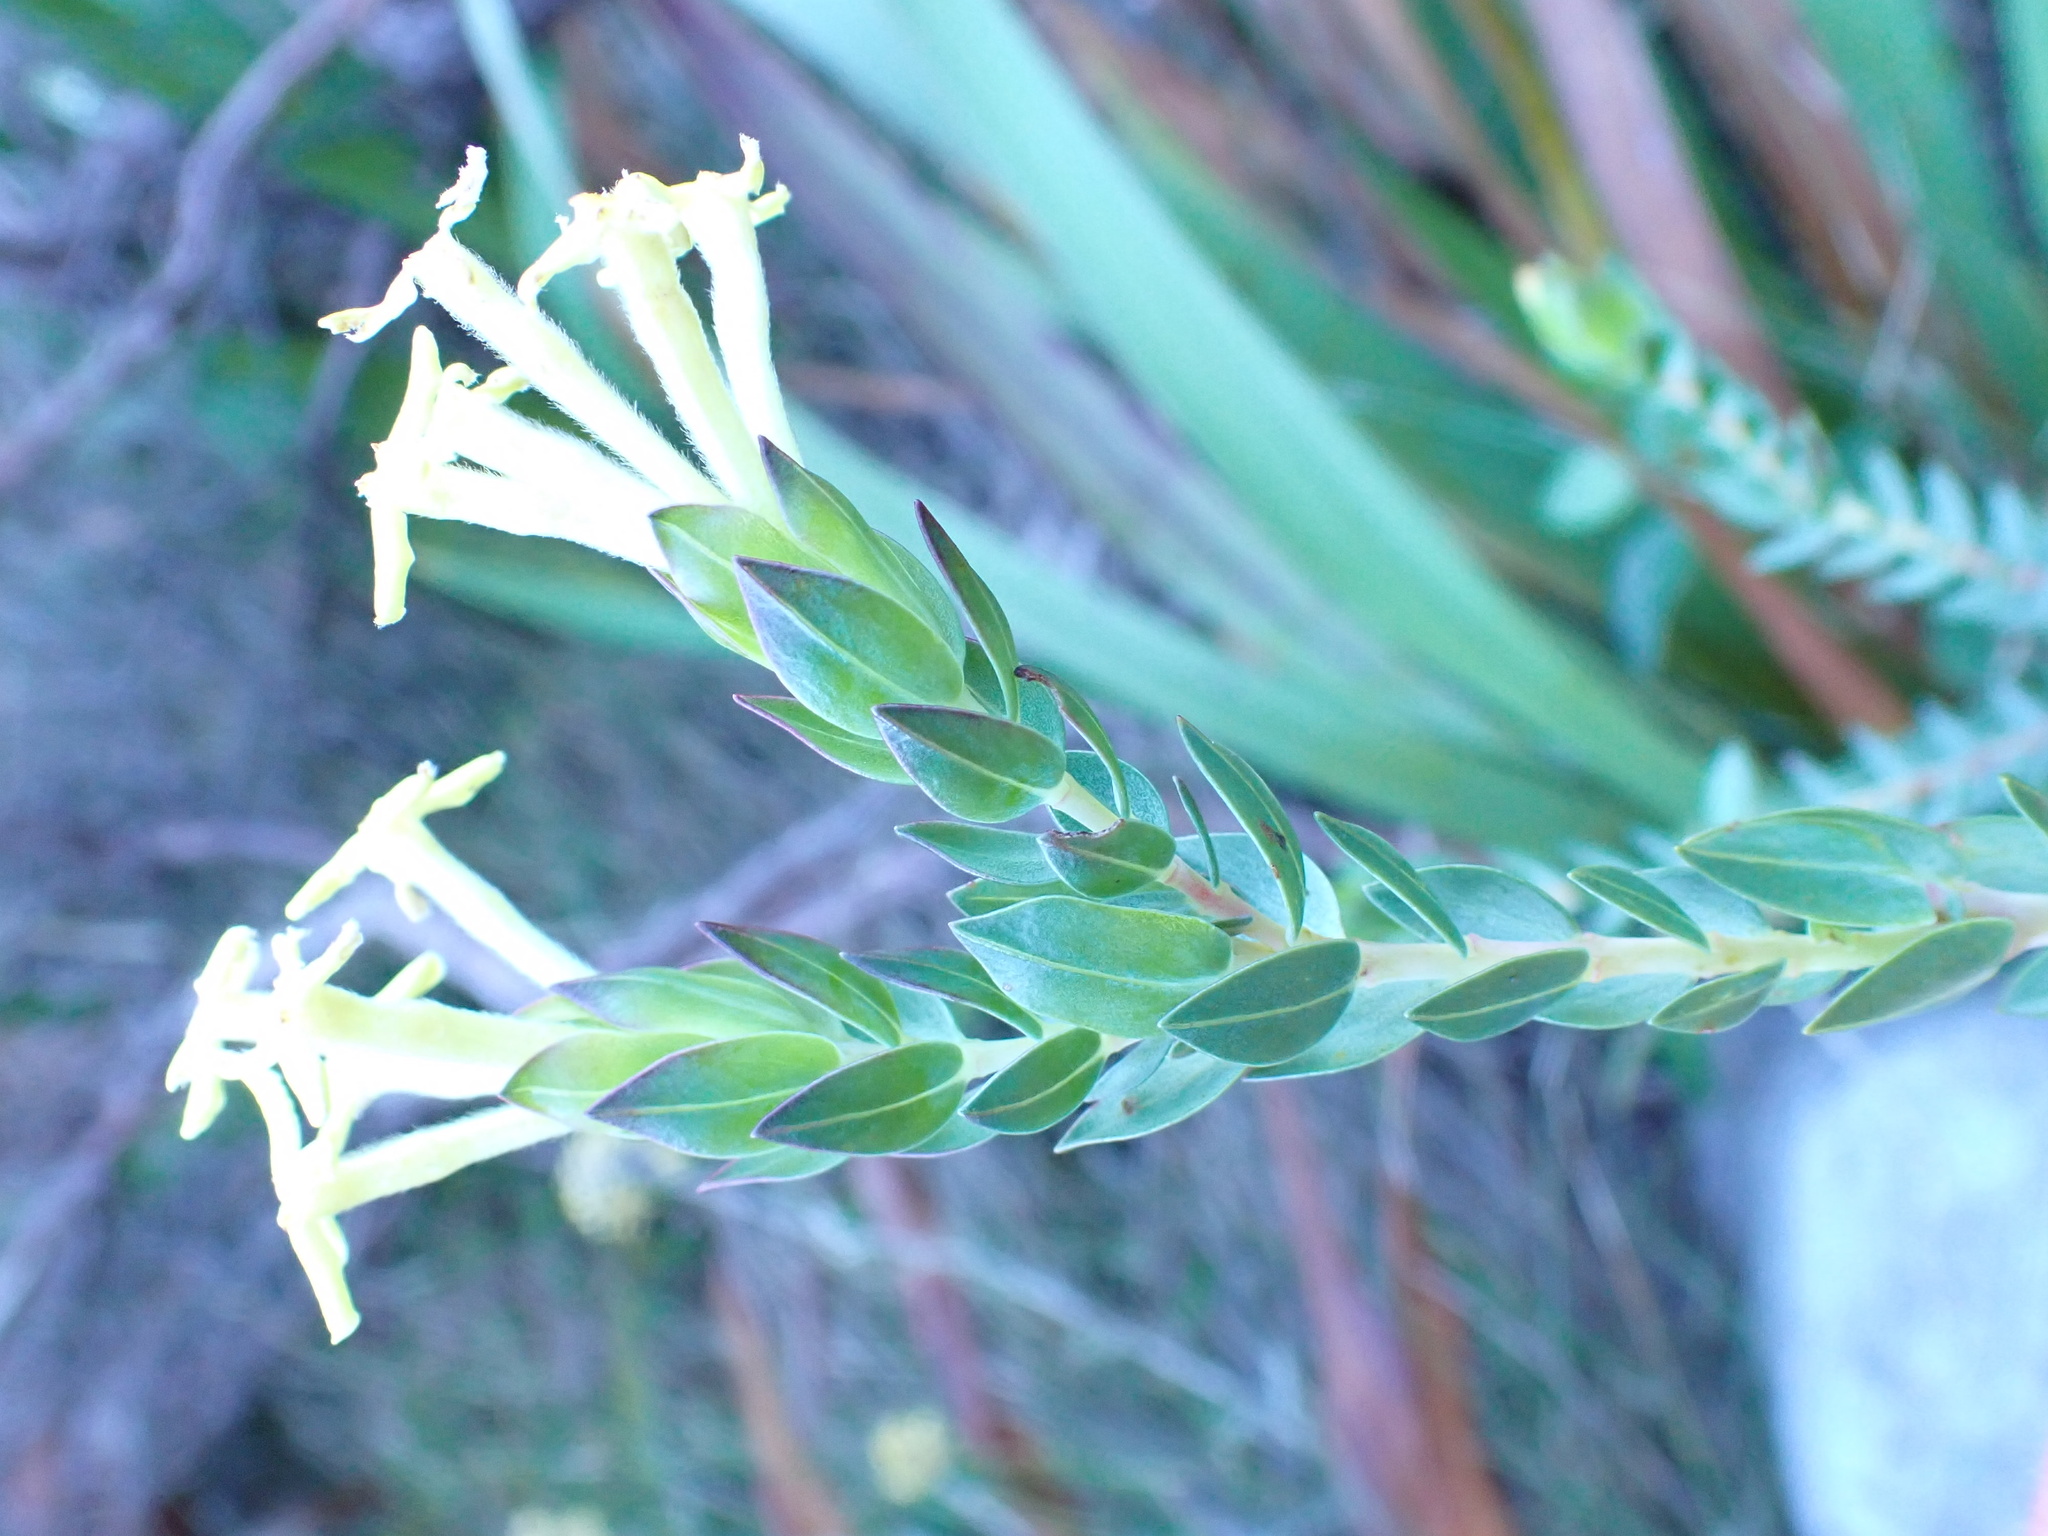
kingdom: Plantae
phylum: Tracheophyta
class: Magnoliopsida
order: Malvales
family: Thymelaeaceae
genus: Gnidia
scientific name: Gnidia oppositifolia
